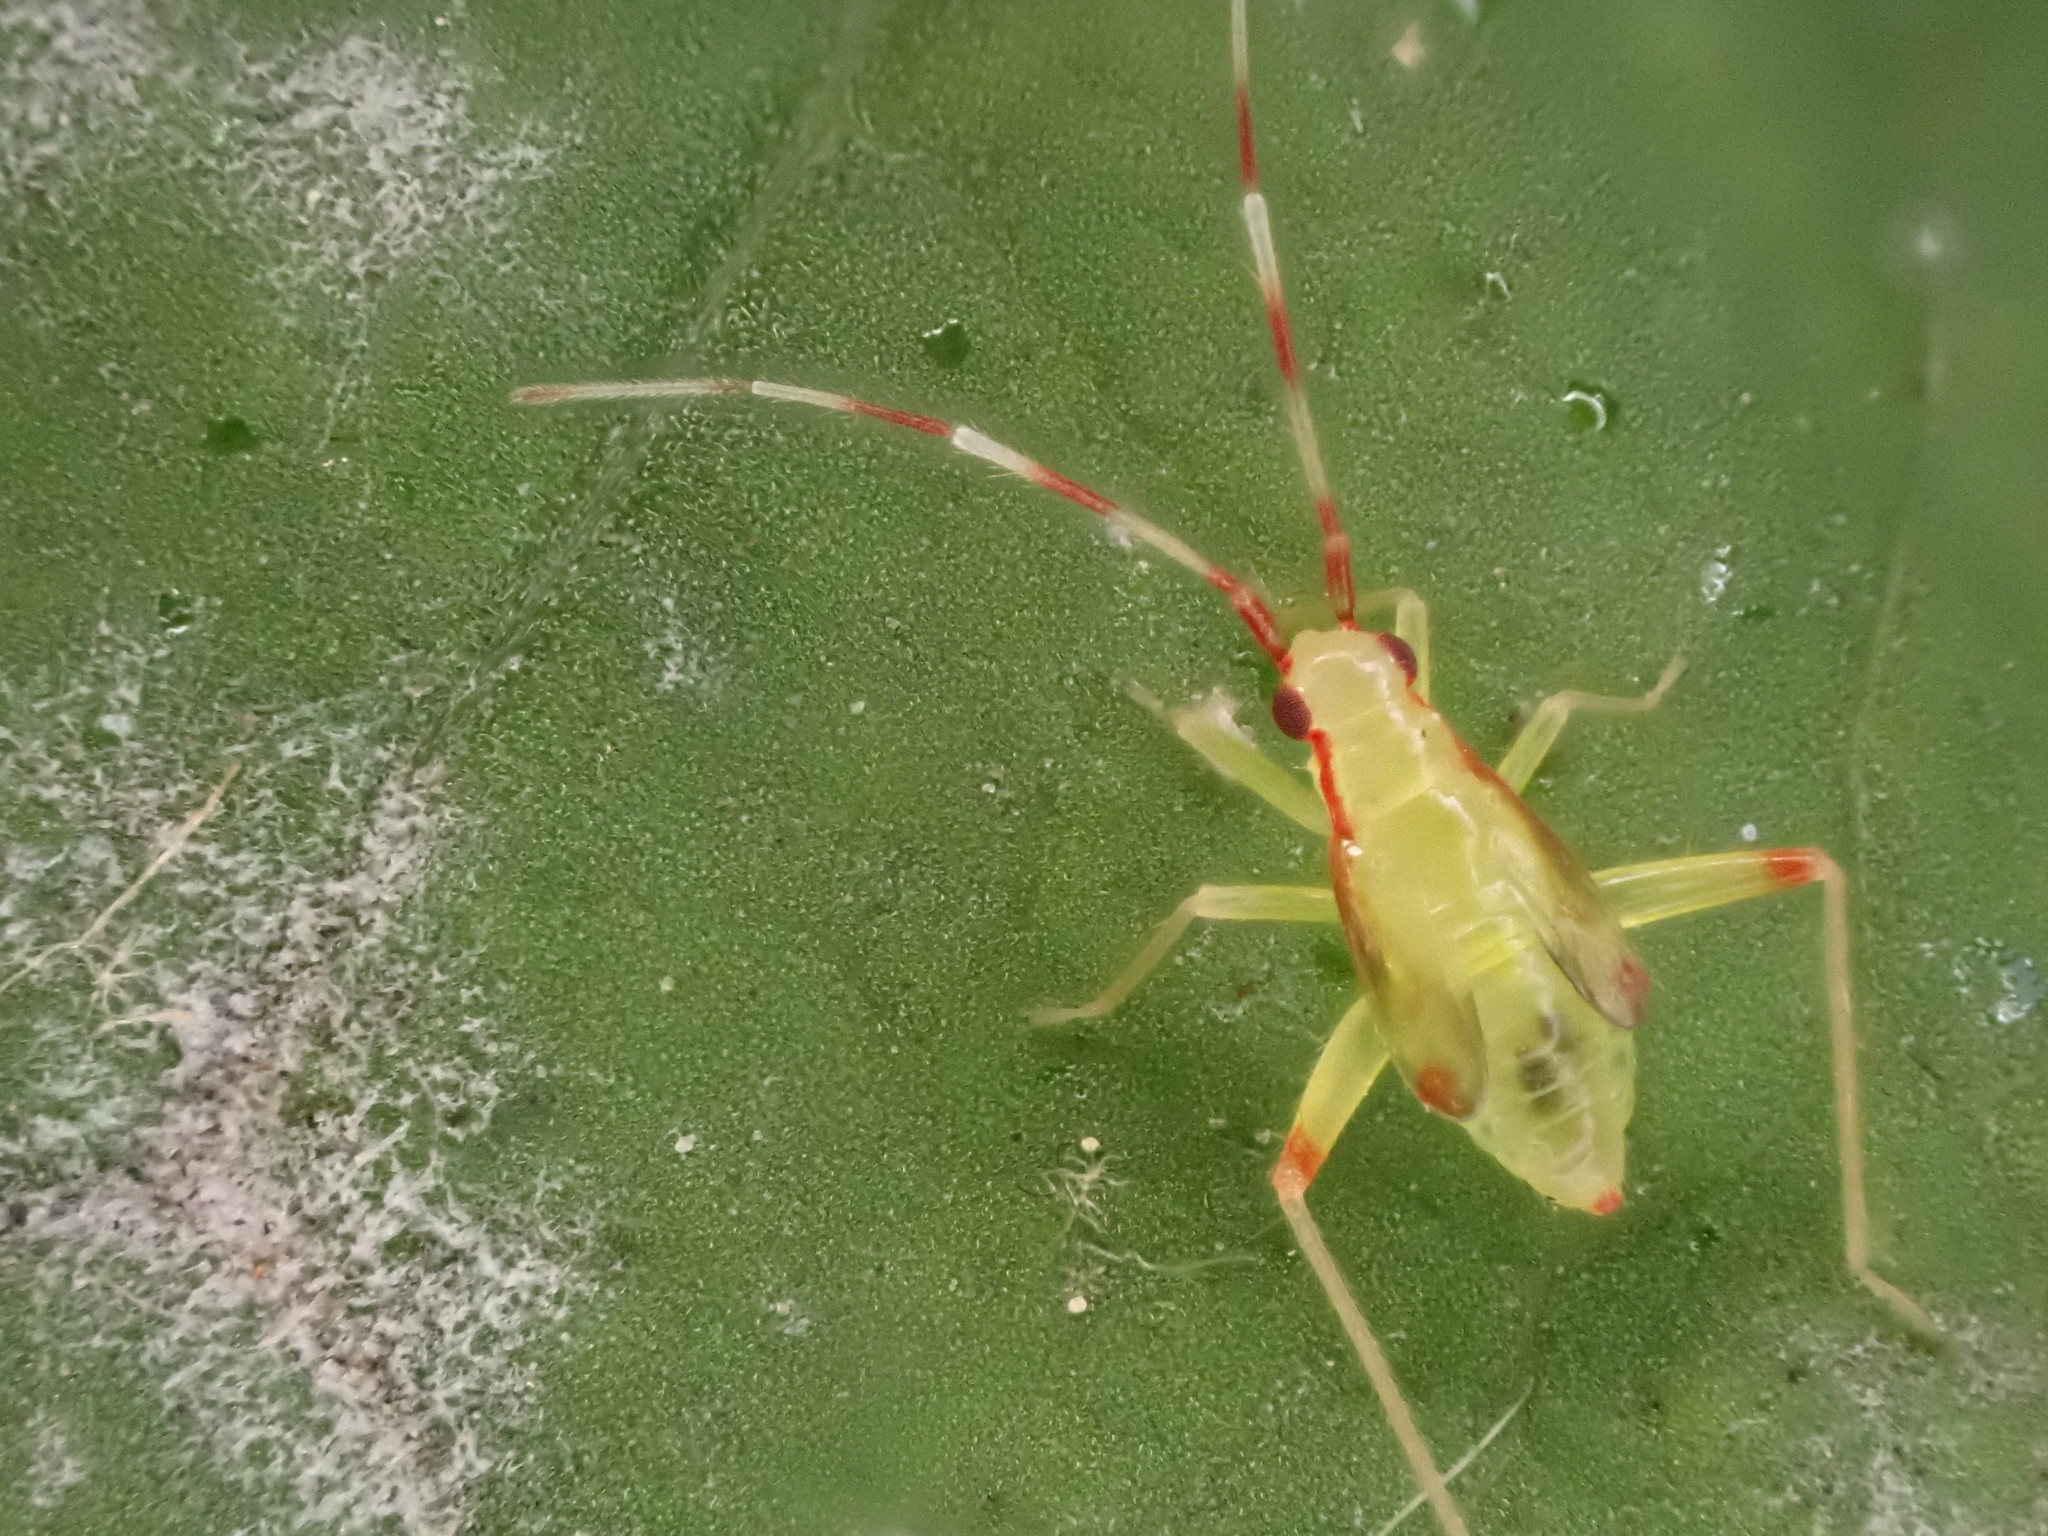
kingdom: Animalia
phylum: Arthropoda
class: Insecta
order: Hemiptera
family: Miridae
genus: Campyloneura
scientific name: Campyloneura virgula
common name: Predatory bug
